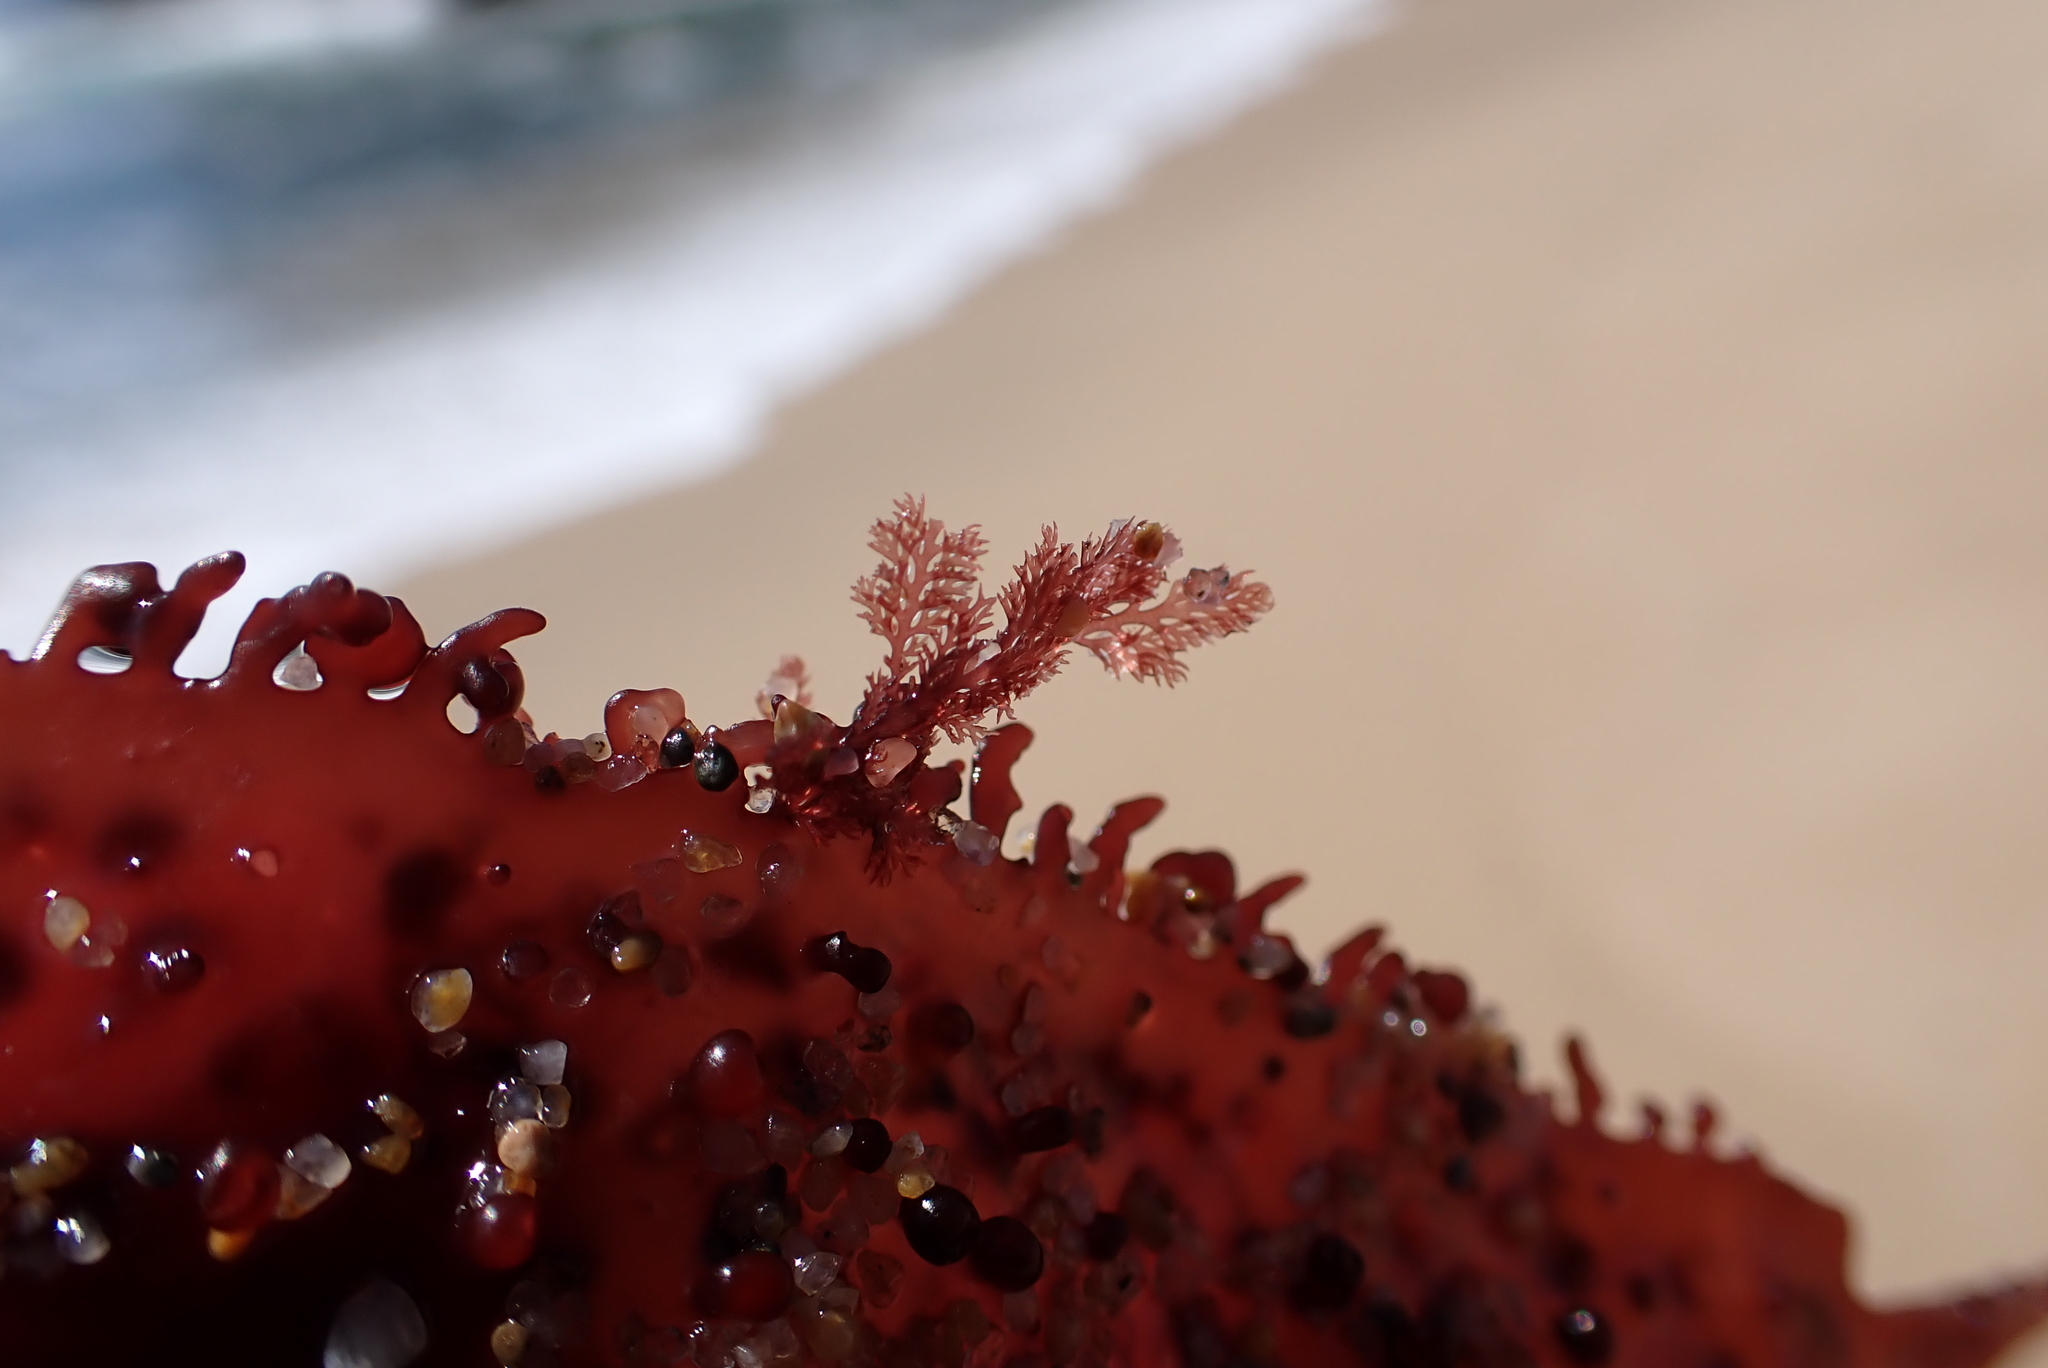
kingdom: Plantae
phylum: Rhodophyta
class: Florideophyceae
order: Ceramiales
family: Ceramiaceae
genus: Microcladia
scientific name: Microcladia coulteri
